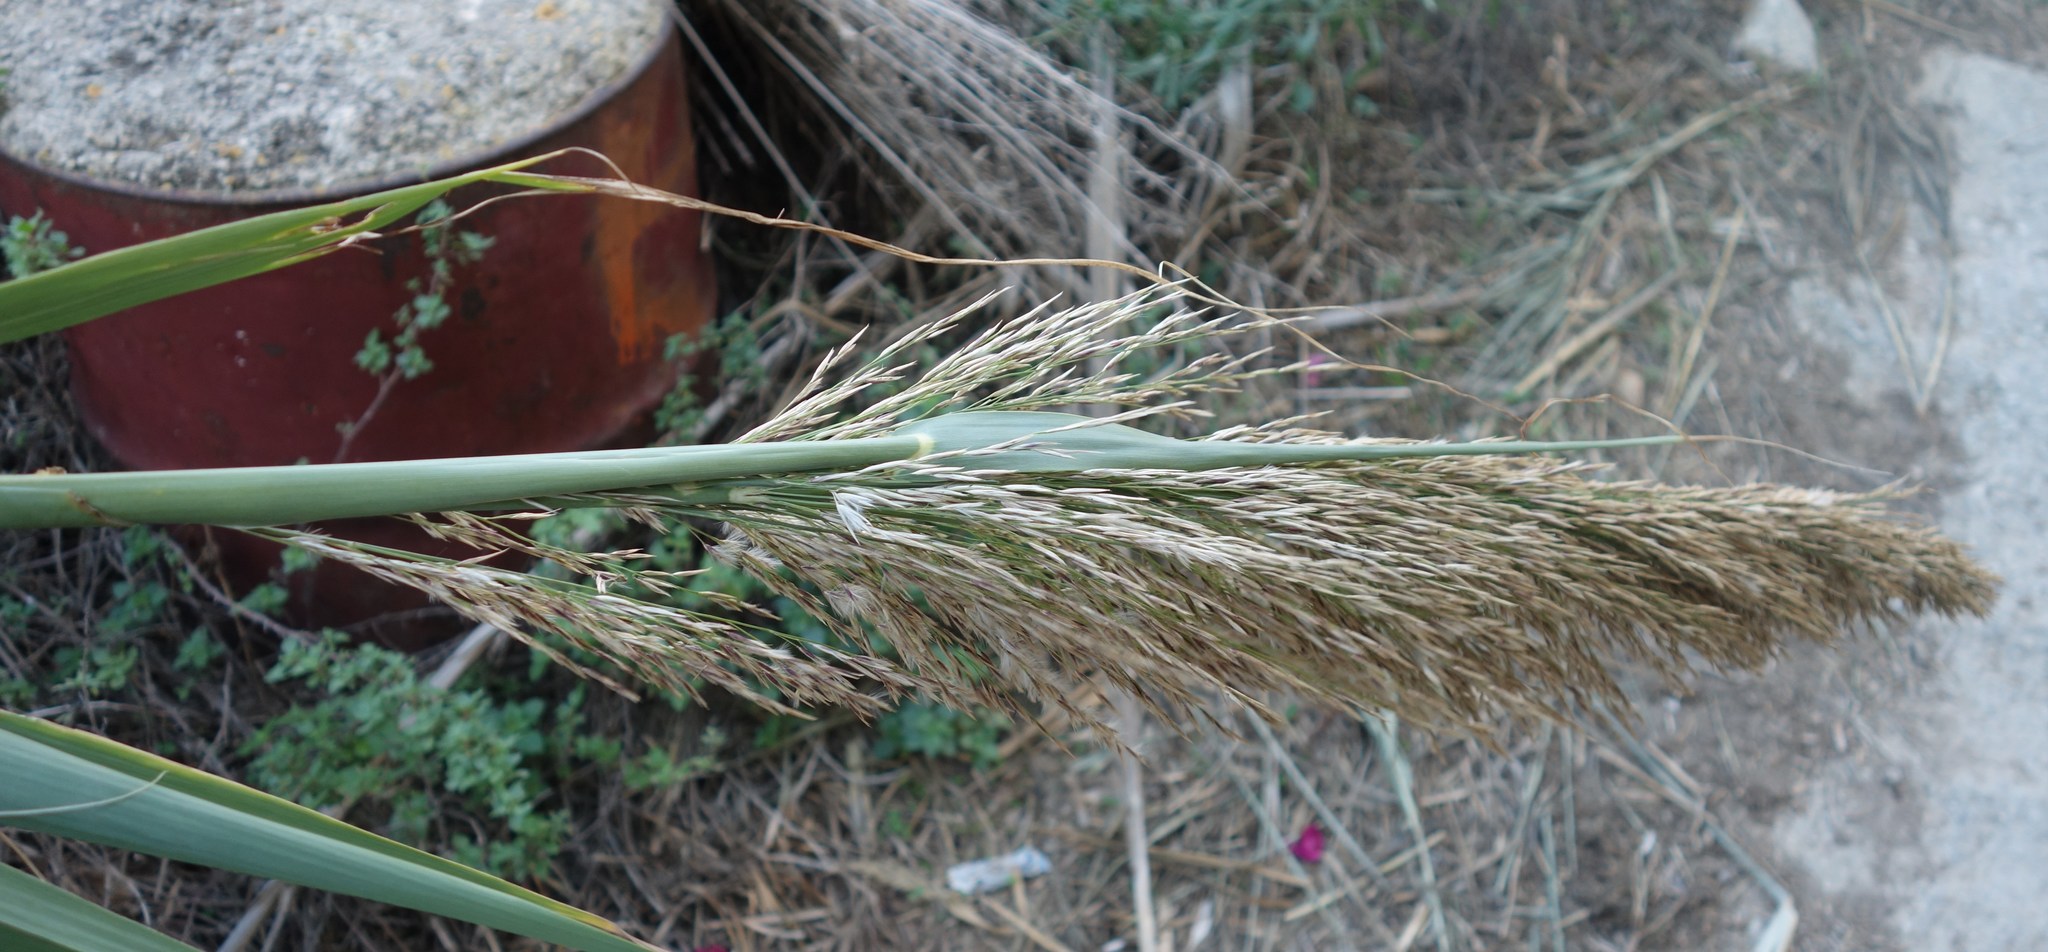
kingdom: Plantae
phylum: Tracheophyta
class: Liliopsida
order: Poales
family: Poaceae
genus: Arundo
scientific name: Arundo donax
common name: Giant reed
